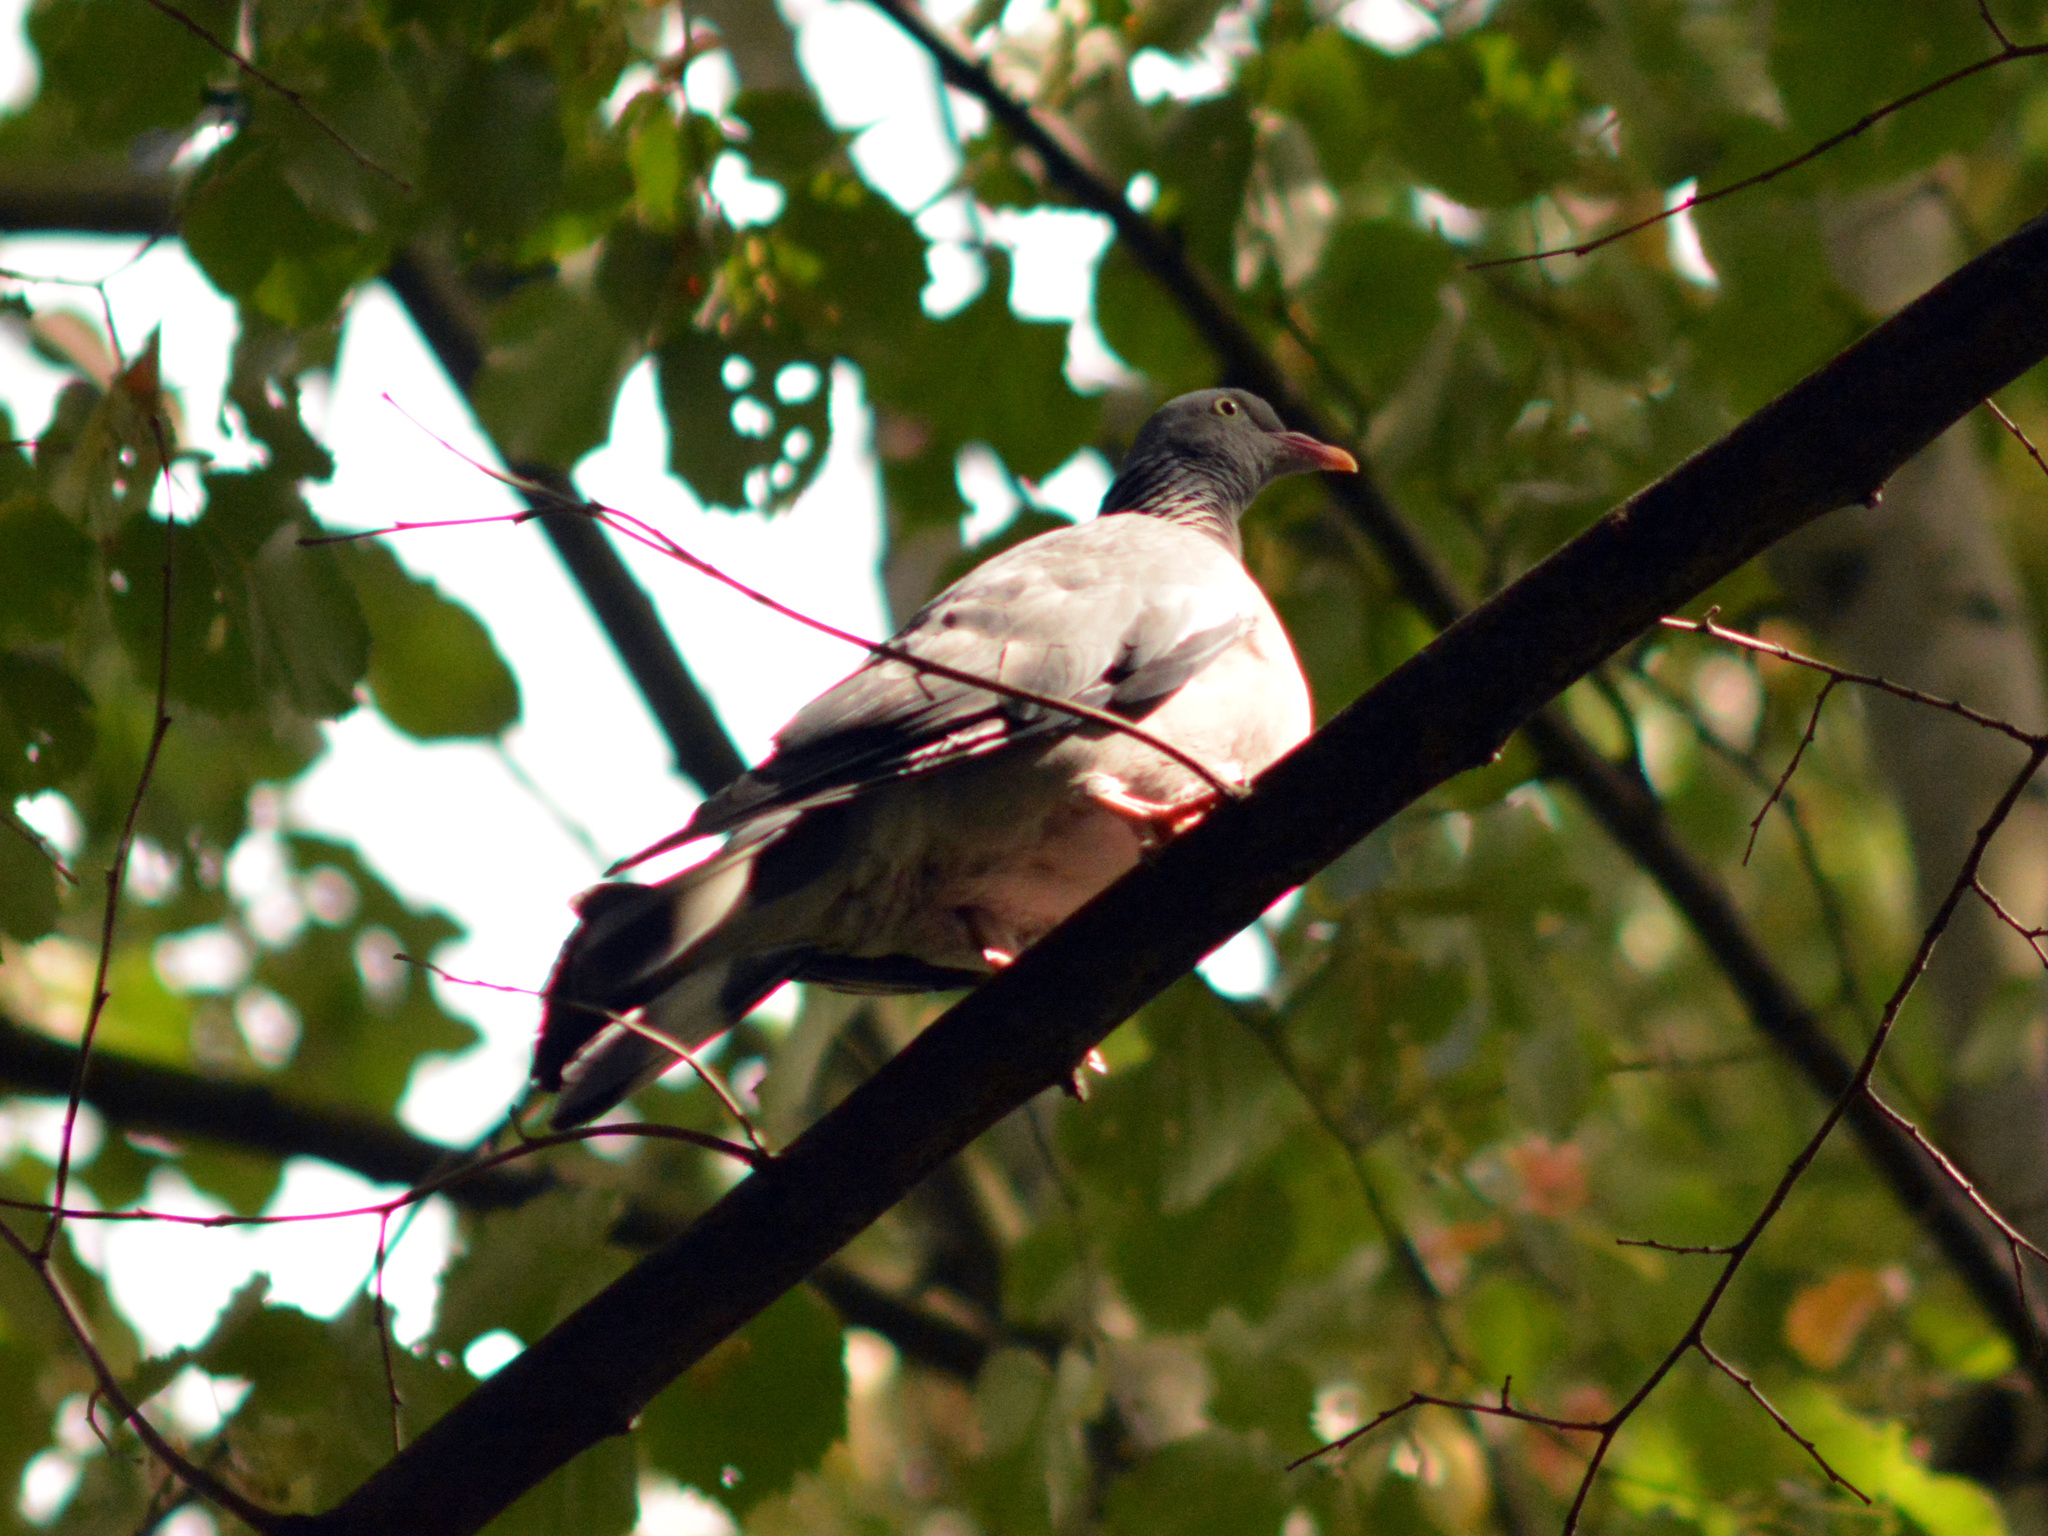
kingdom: Animalia
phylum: Chordata
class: Aves
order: Columbiformes
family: Columbidae
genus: Columba
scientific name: Columba palumbus
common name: Common wood pigeon
